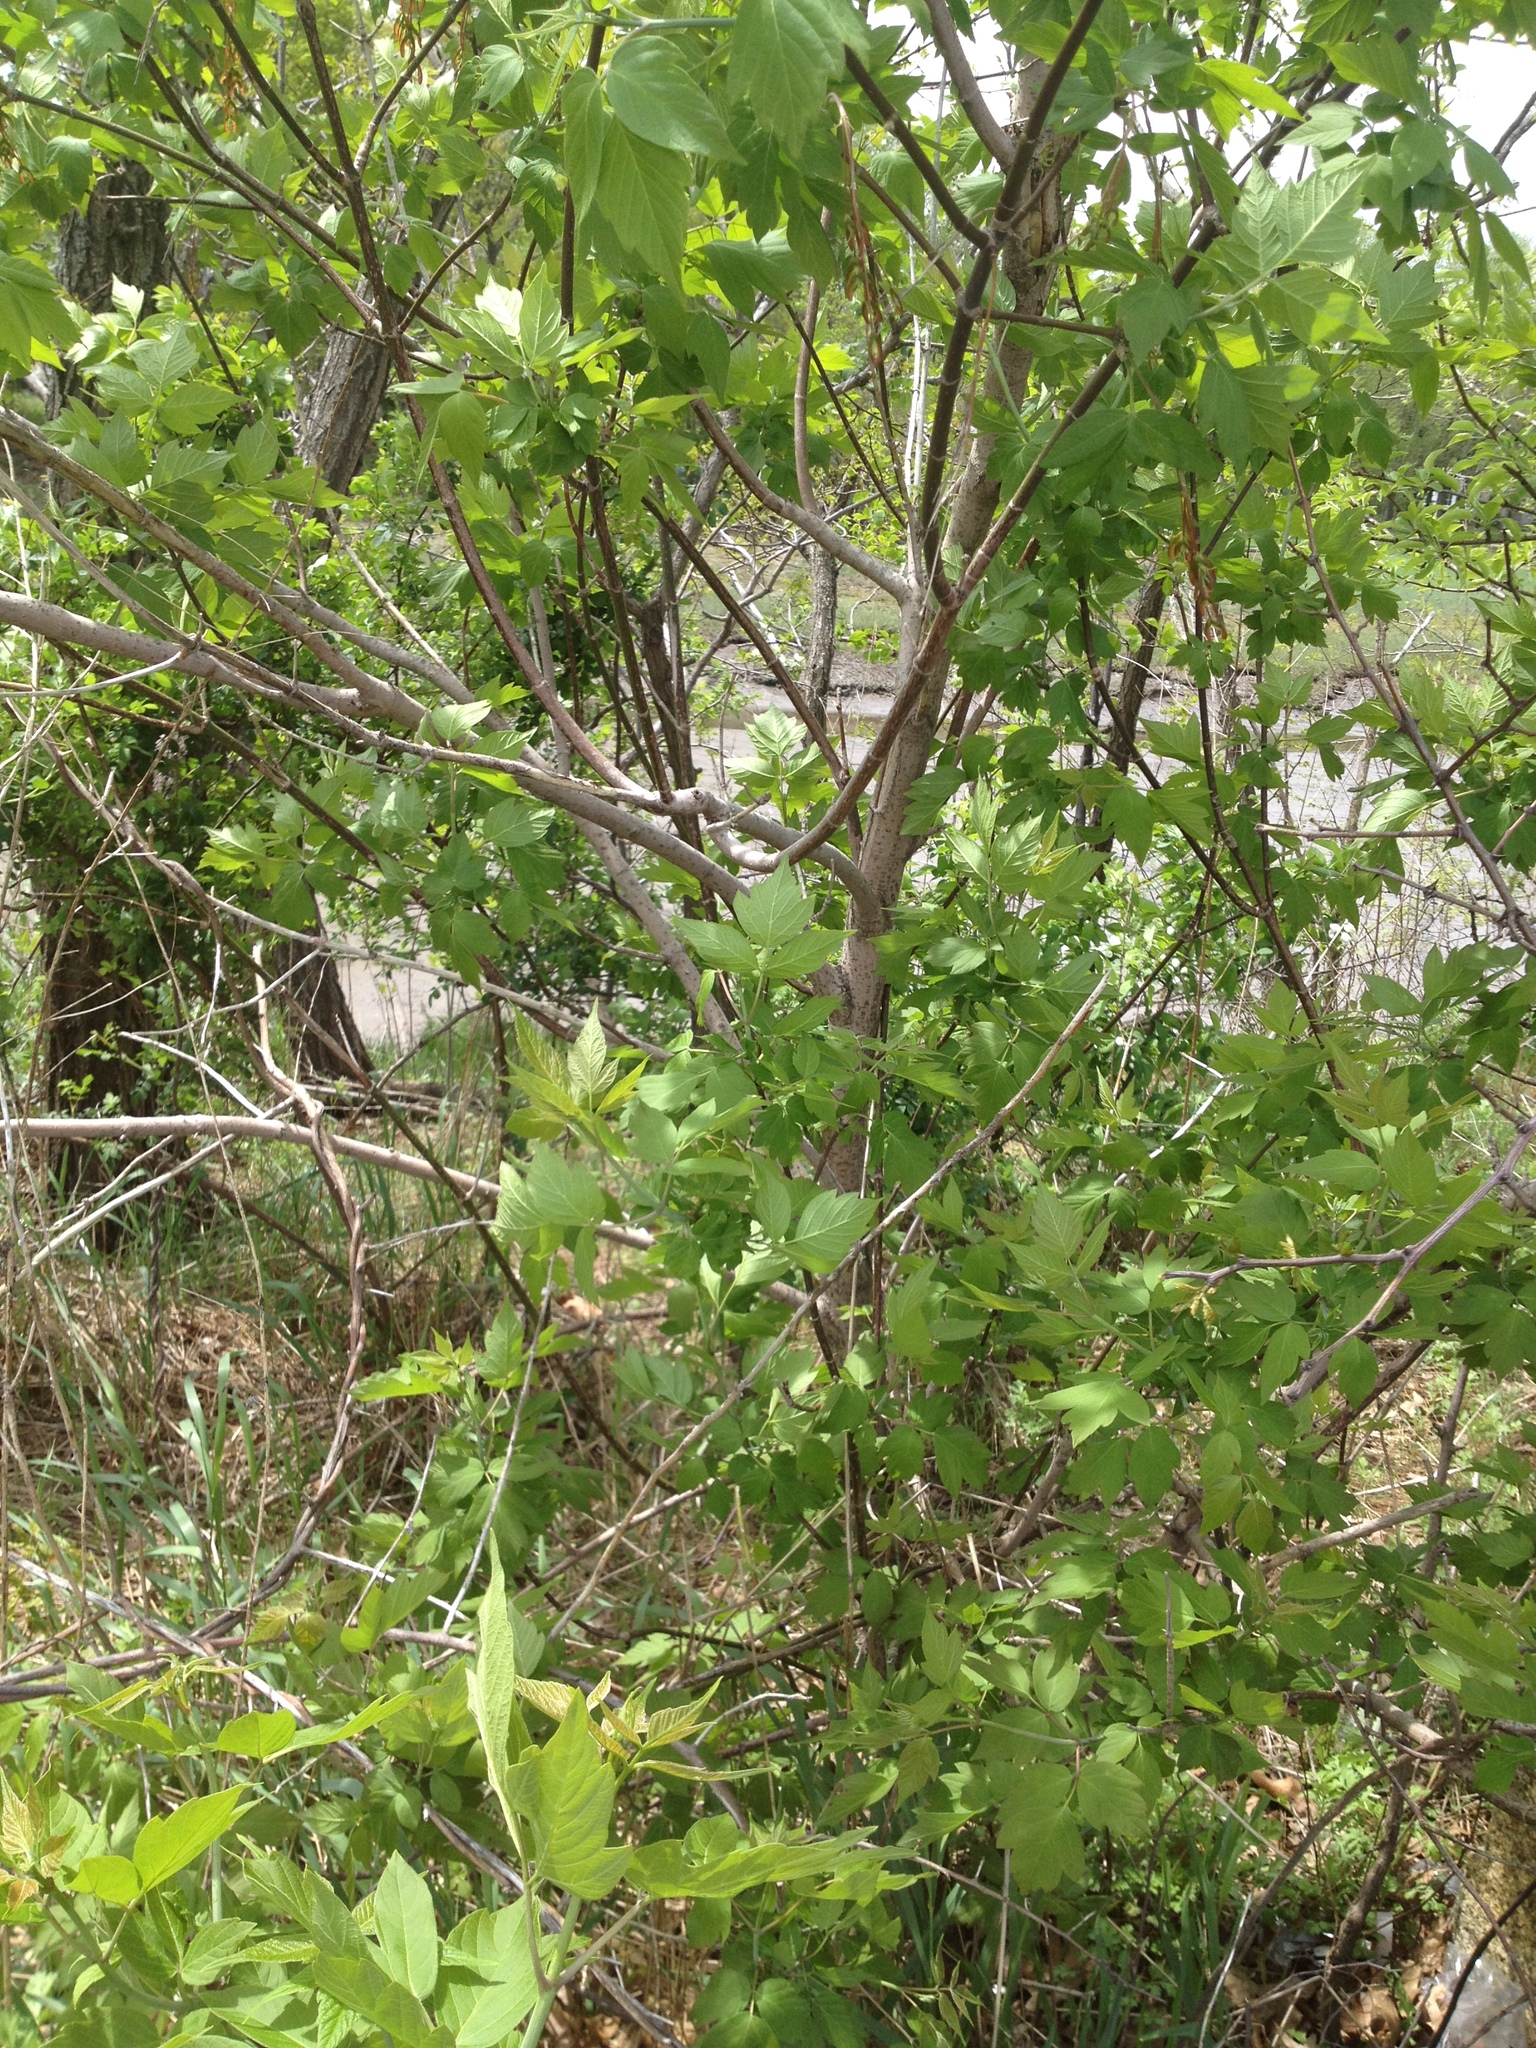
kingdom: Plantae
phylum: Tracheophyta
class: Magnoliopsida
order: Sapindales
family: Sapindaceae
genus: Acer
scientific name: Acer negundo
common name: Ashleaf maple
